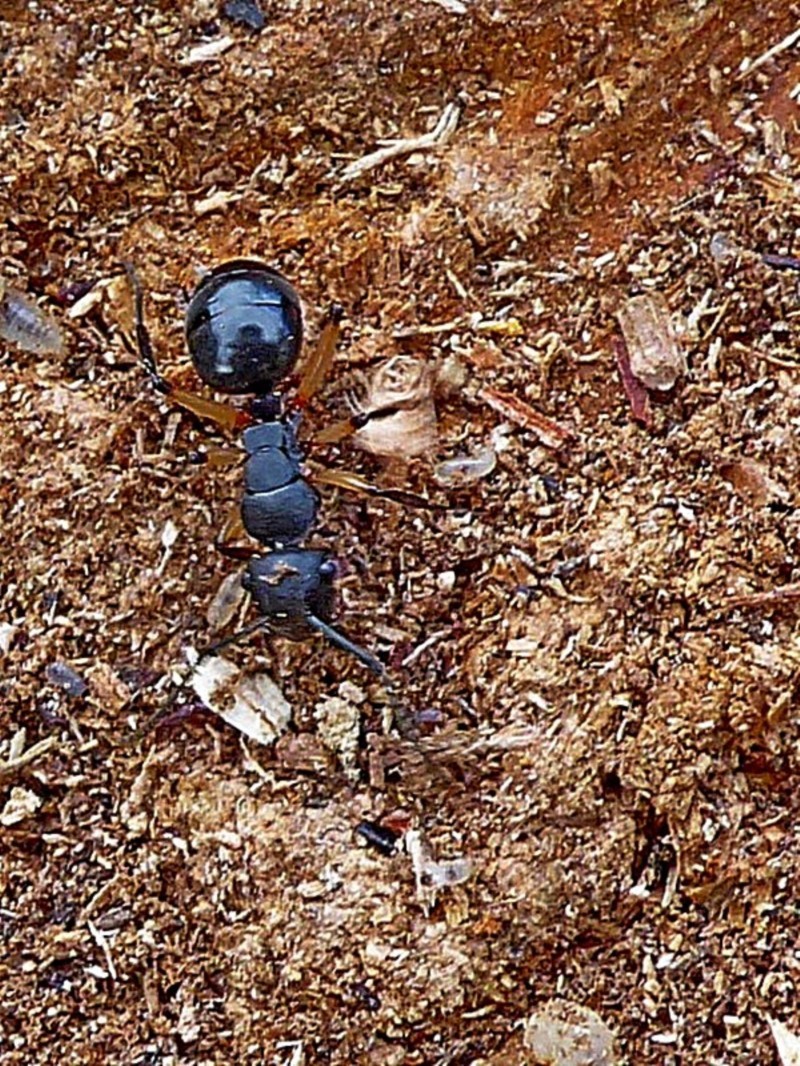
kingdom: Animalia
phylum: Arthropoda
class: Insecta
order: Hymenoptera
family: Formicidae
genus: Polyrhachis
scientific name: Polyrhachis femorata
